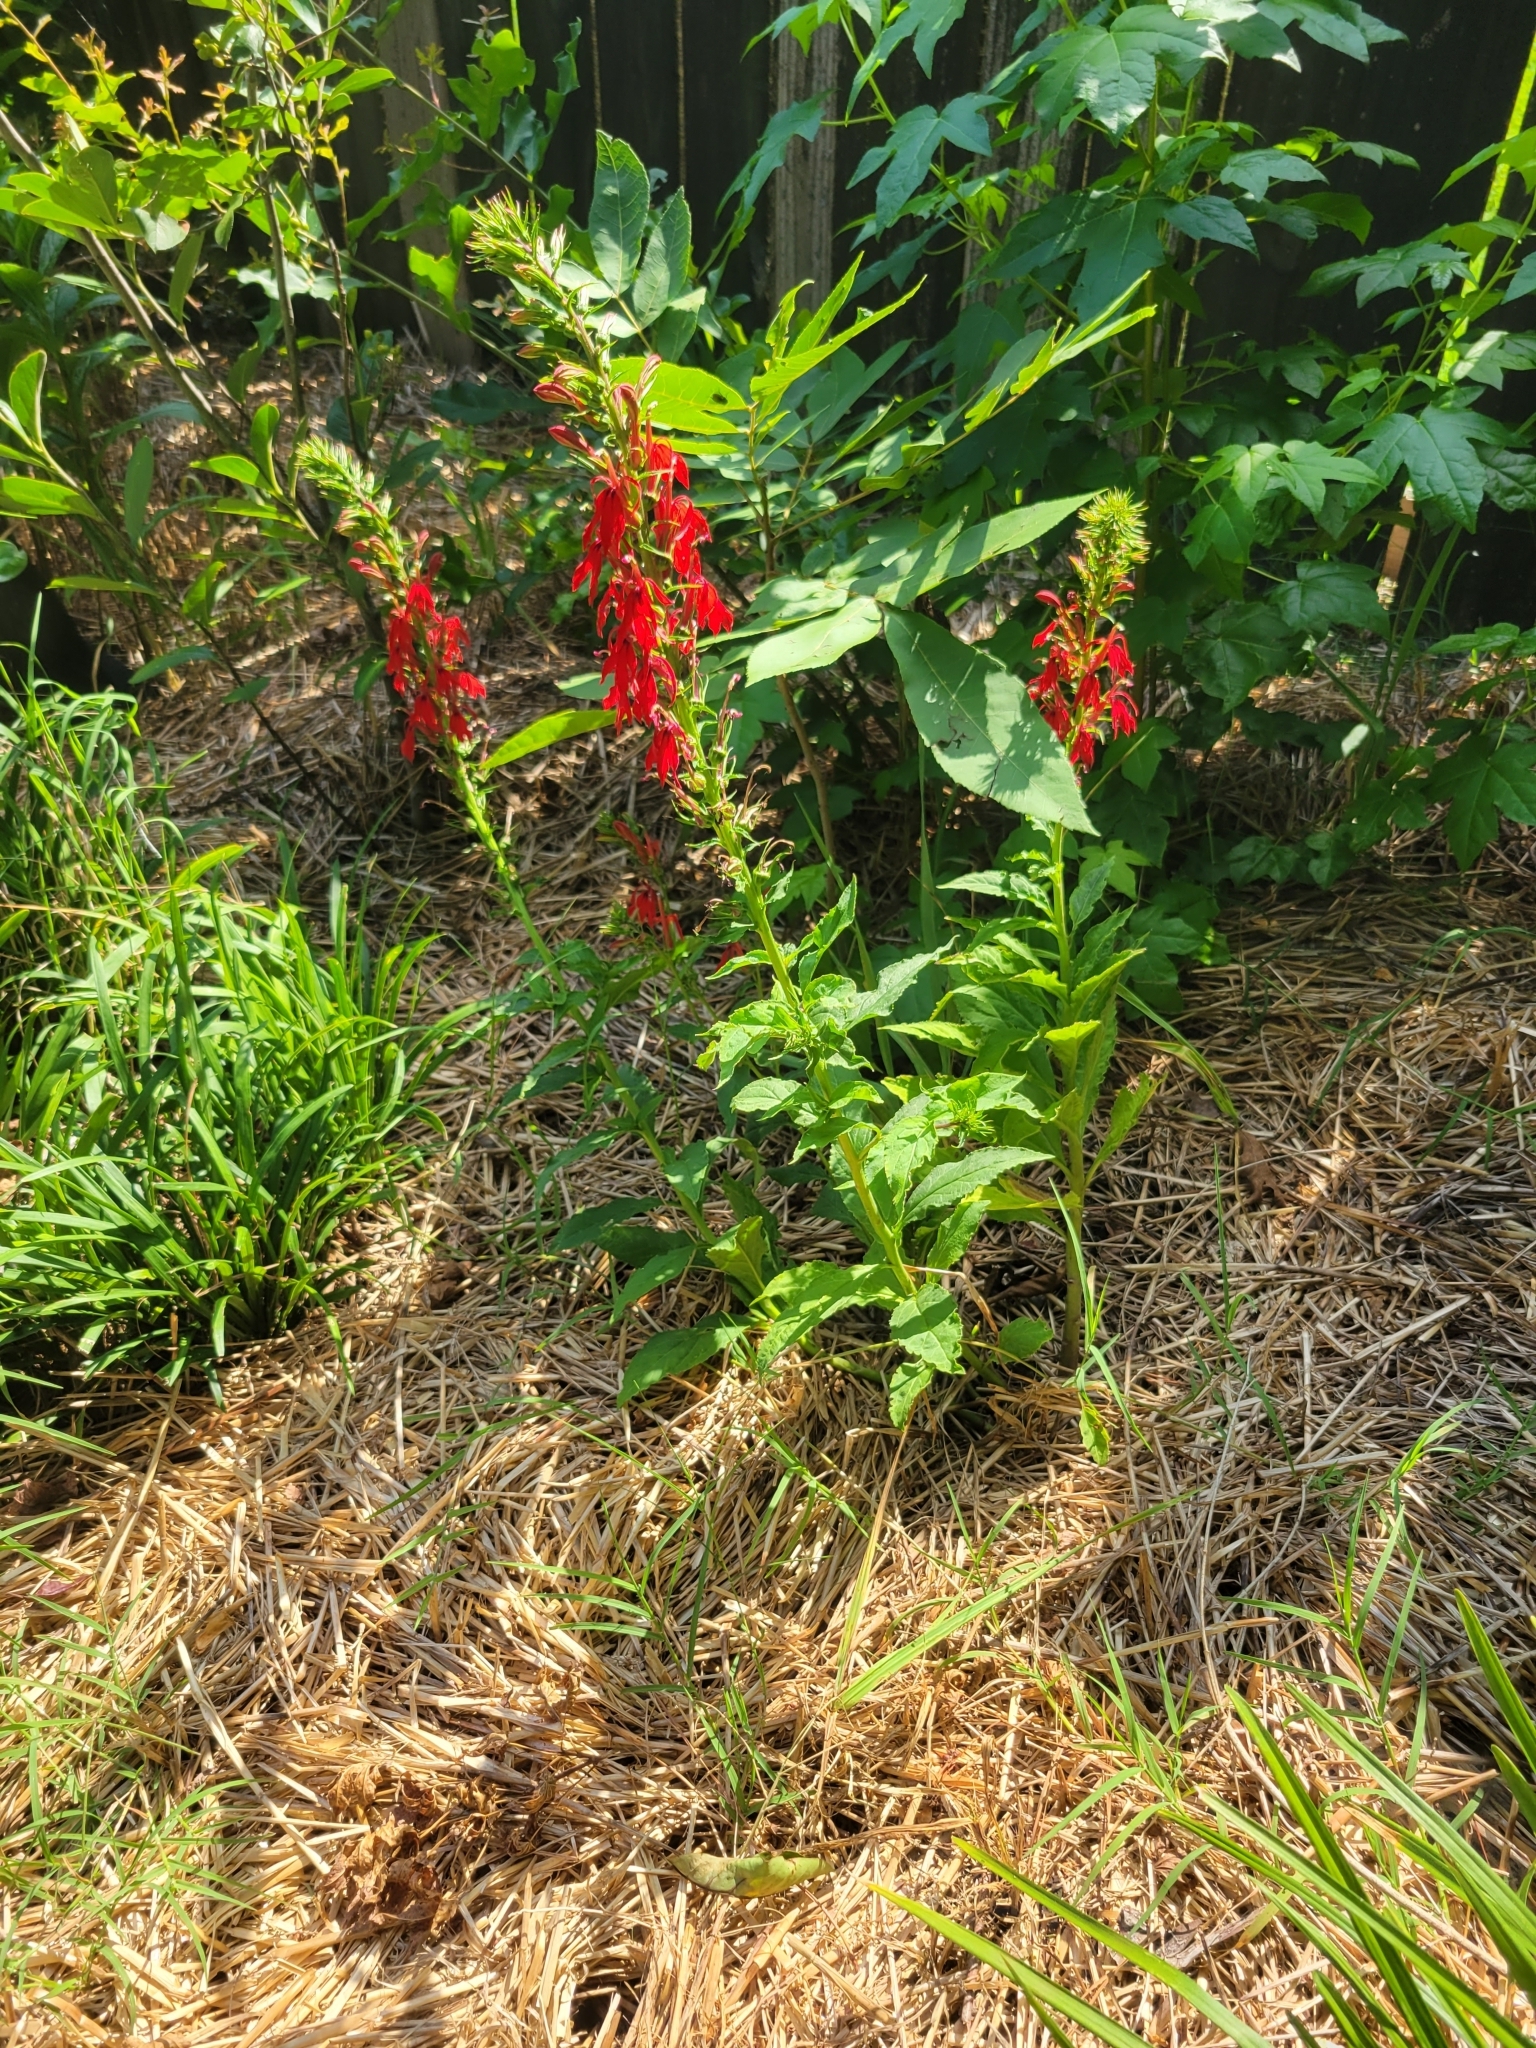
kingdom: Plantae
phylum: Tracheophyta
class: Magnoliopsida
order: Asterales
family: Campanulaceae
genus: Lobelia
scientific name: Lobelia cardinalis
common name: Cardinal flower
